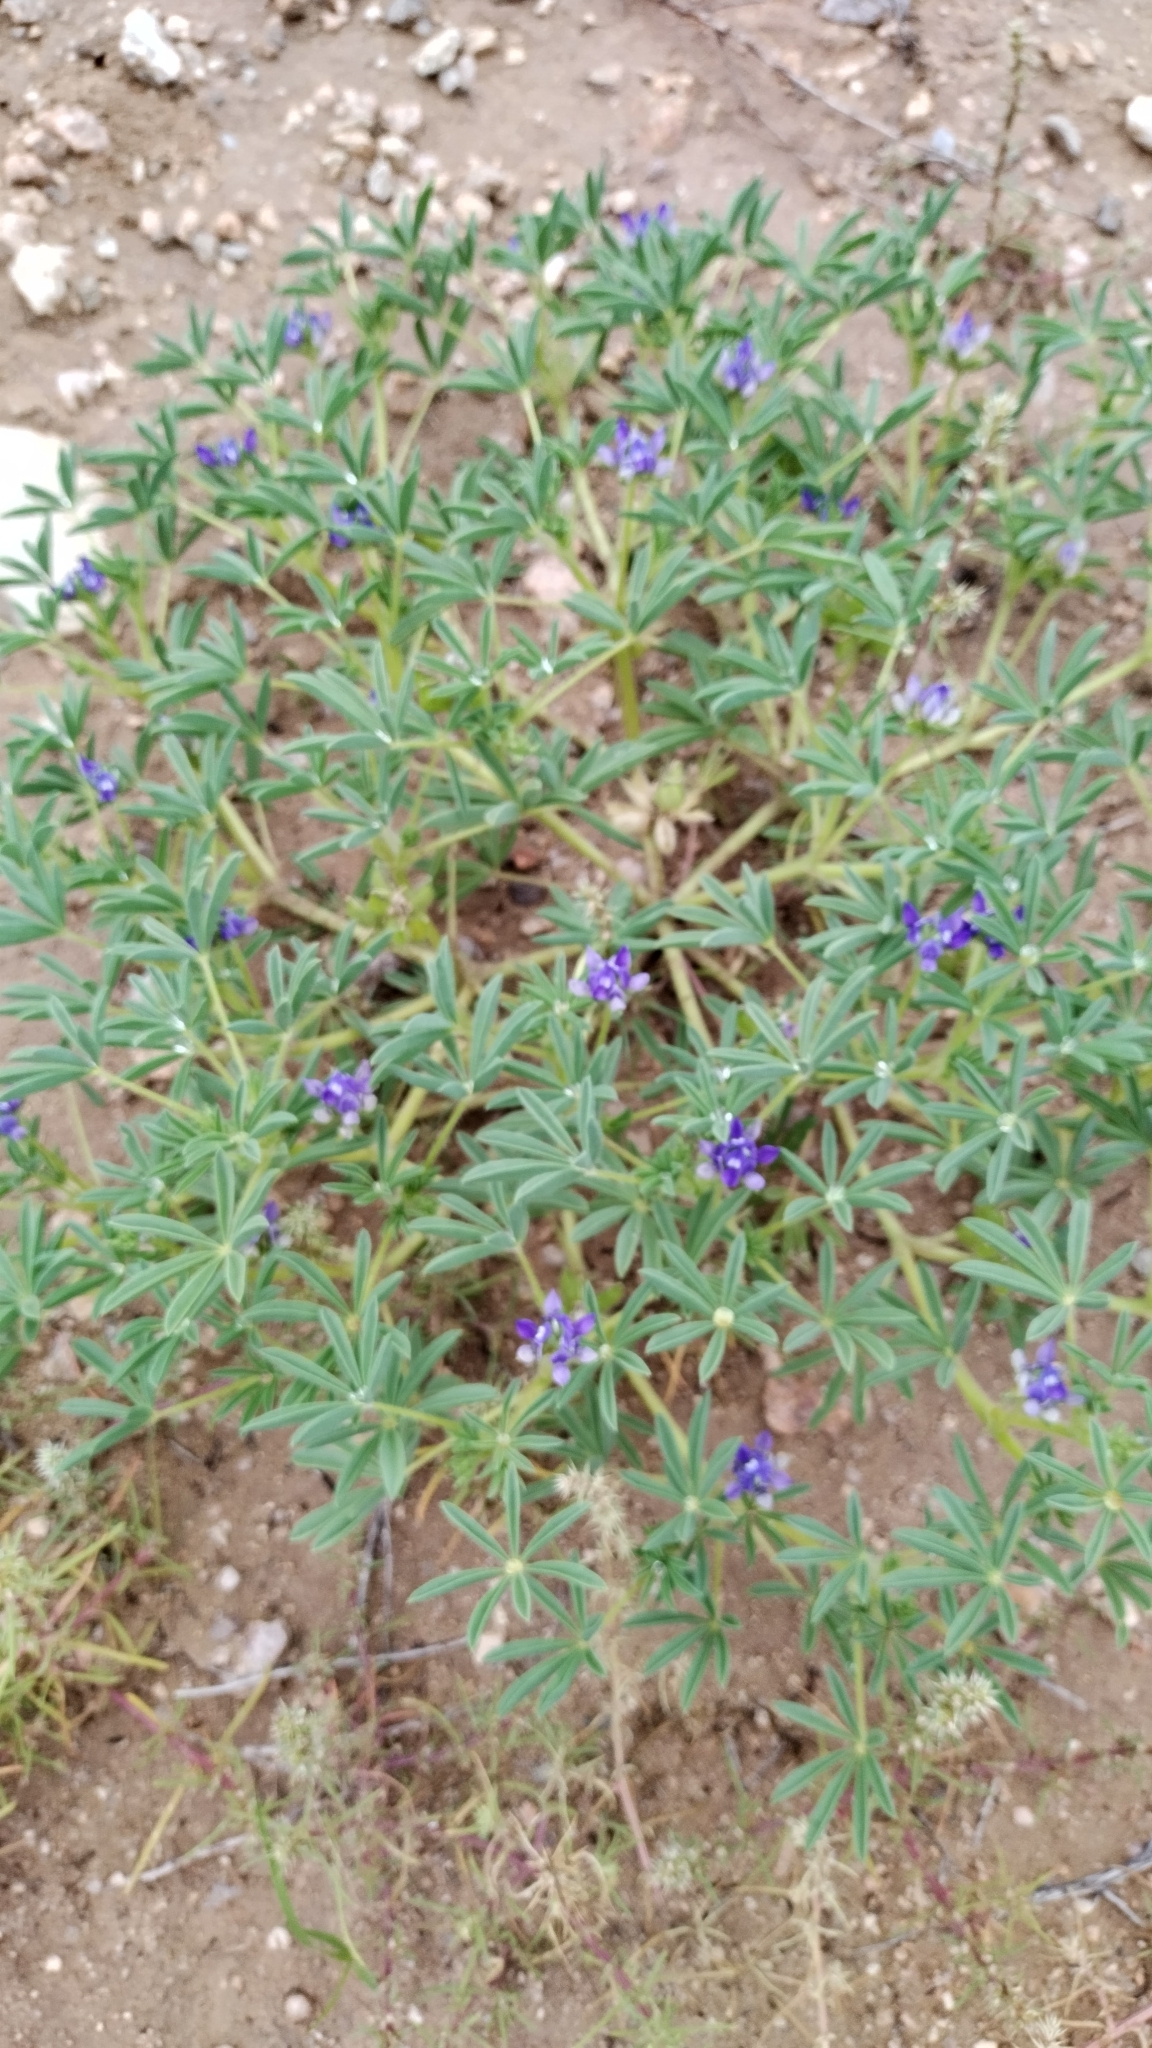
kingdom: Plantae
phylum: Tracheophyta
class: Magnoliopsida
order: Fabales
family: Fabaceae
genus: Lupinus
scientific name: Lupinus argenteus
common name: Silvery lupine
